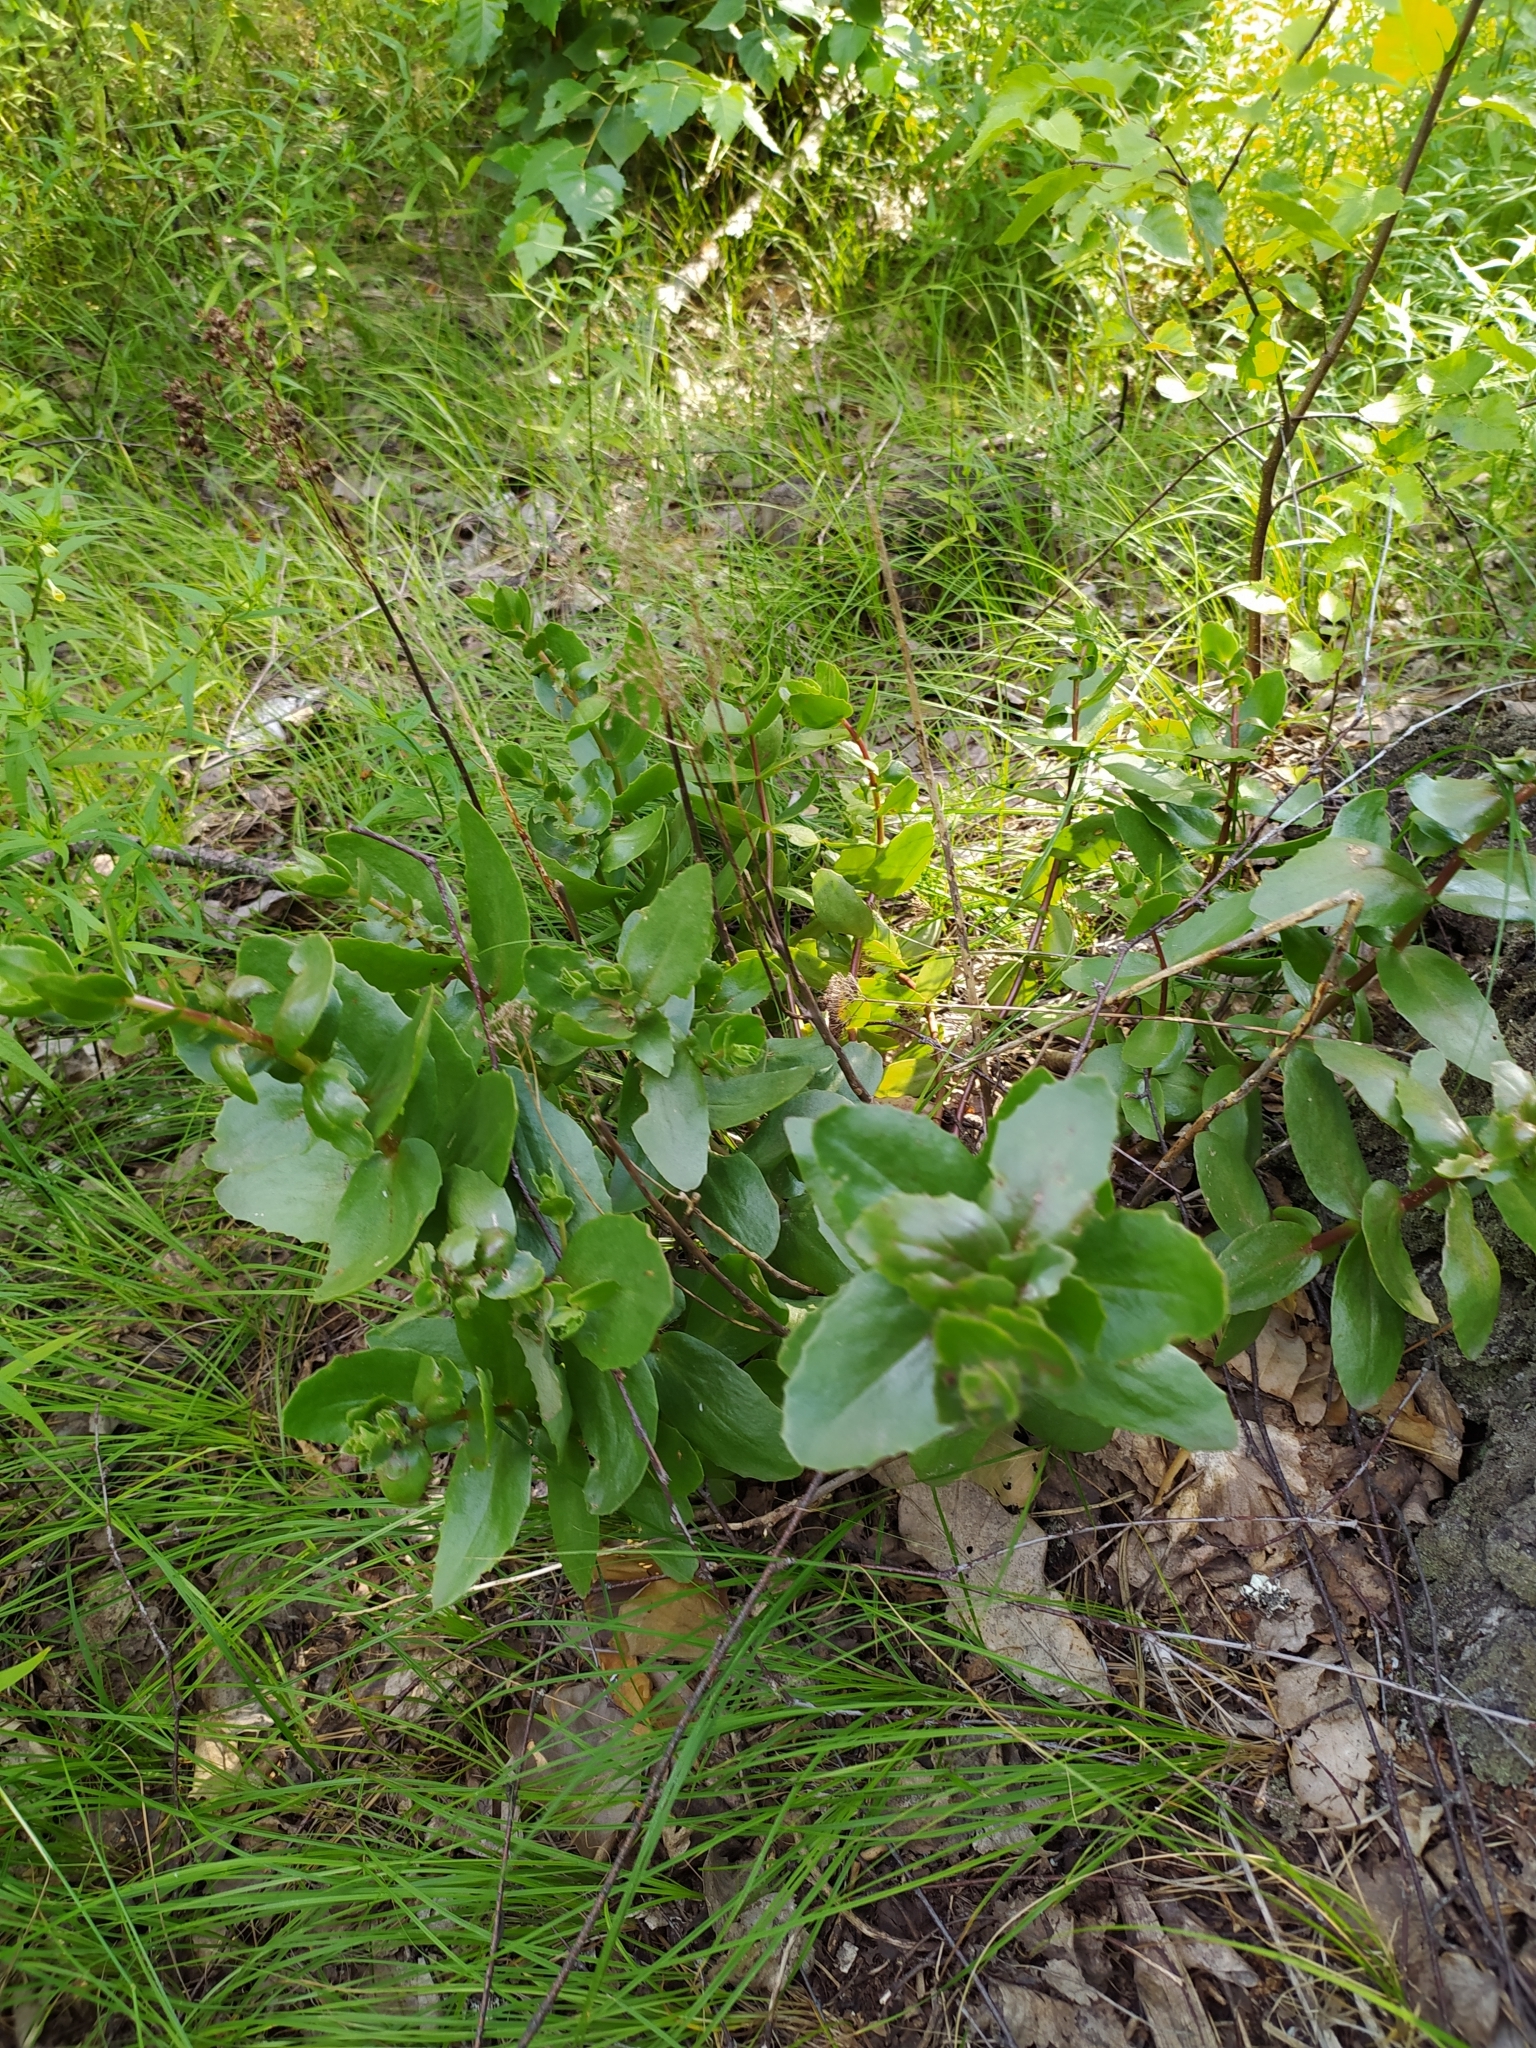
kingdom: Plantae
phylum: Tracheophyta
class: Magnoliopsida
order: Saxifragales
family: Crassulaceae
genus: Hylotelephium
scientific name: Hylotelephium maximum
